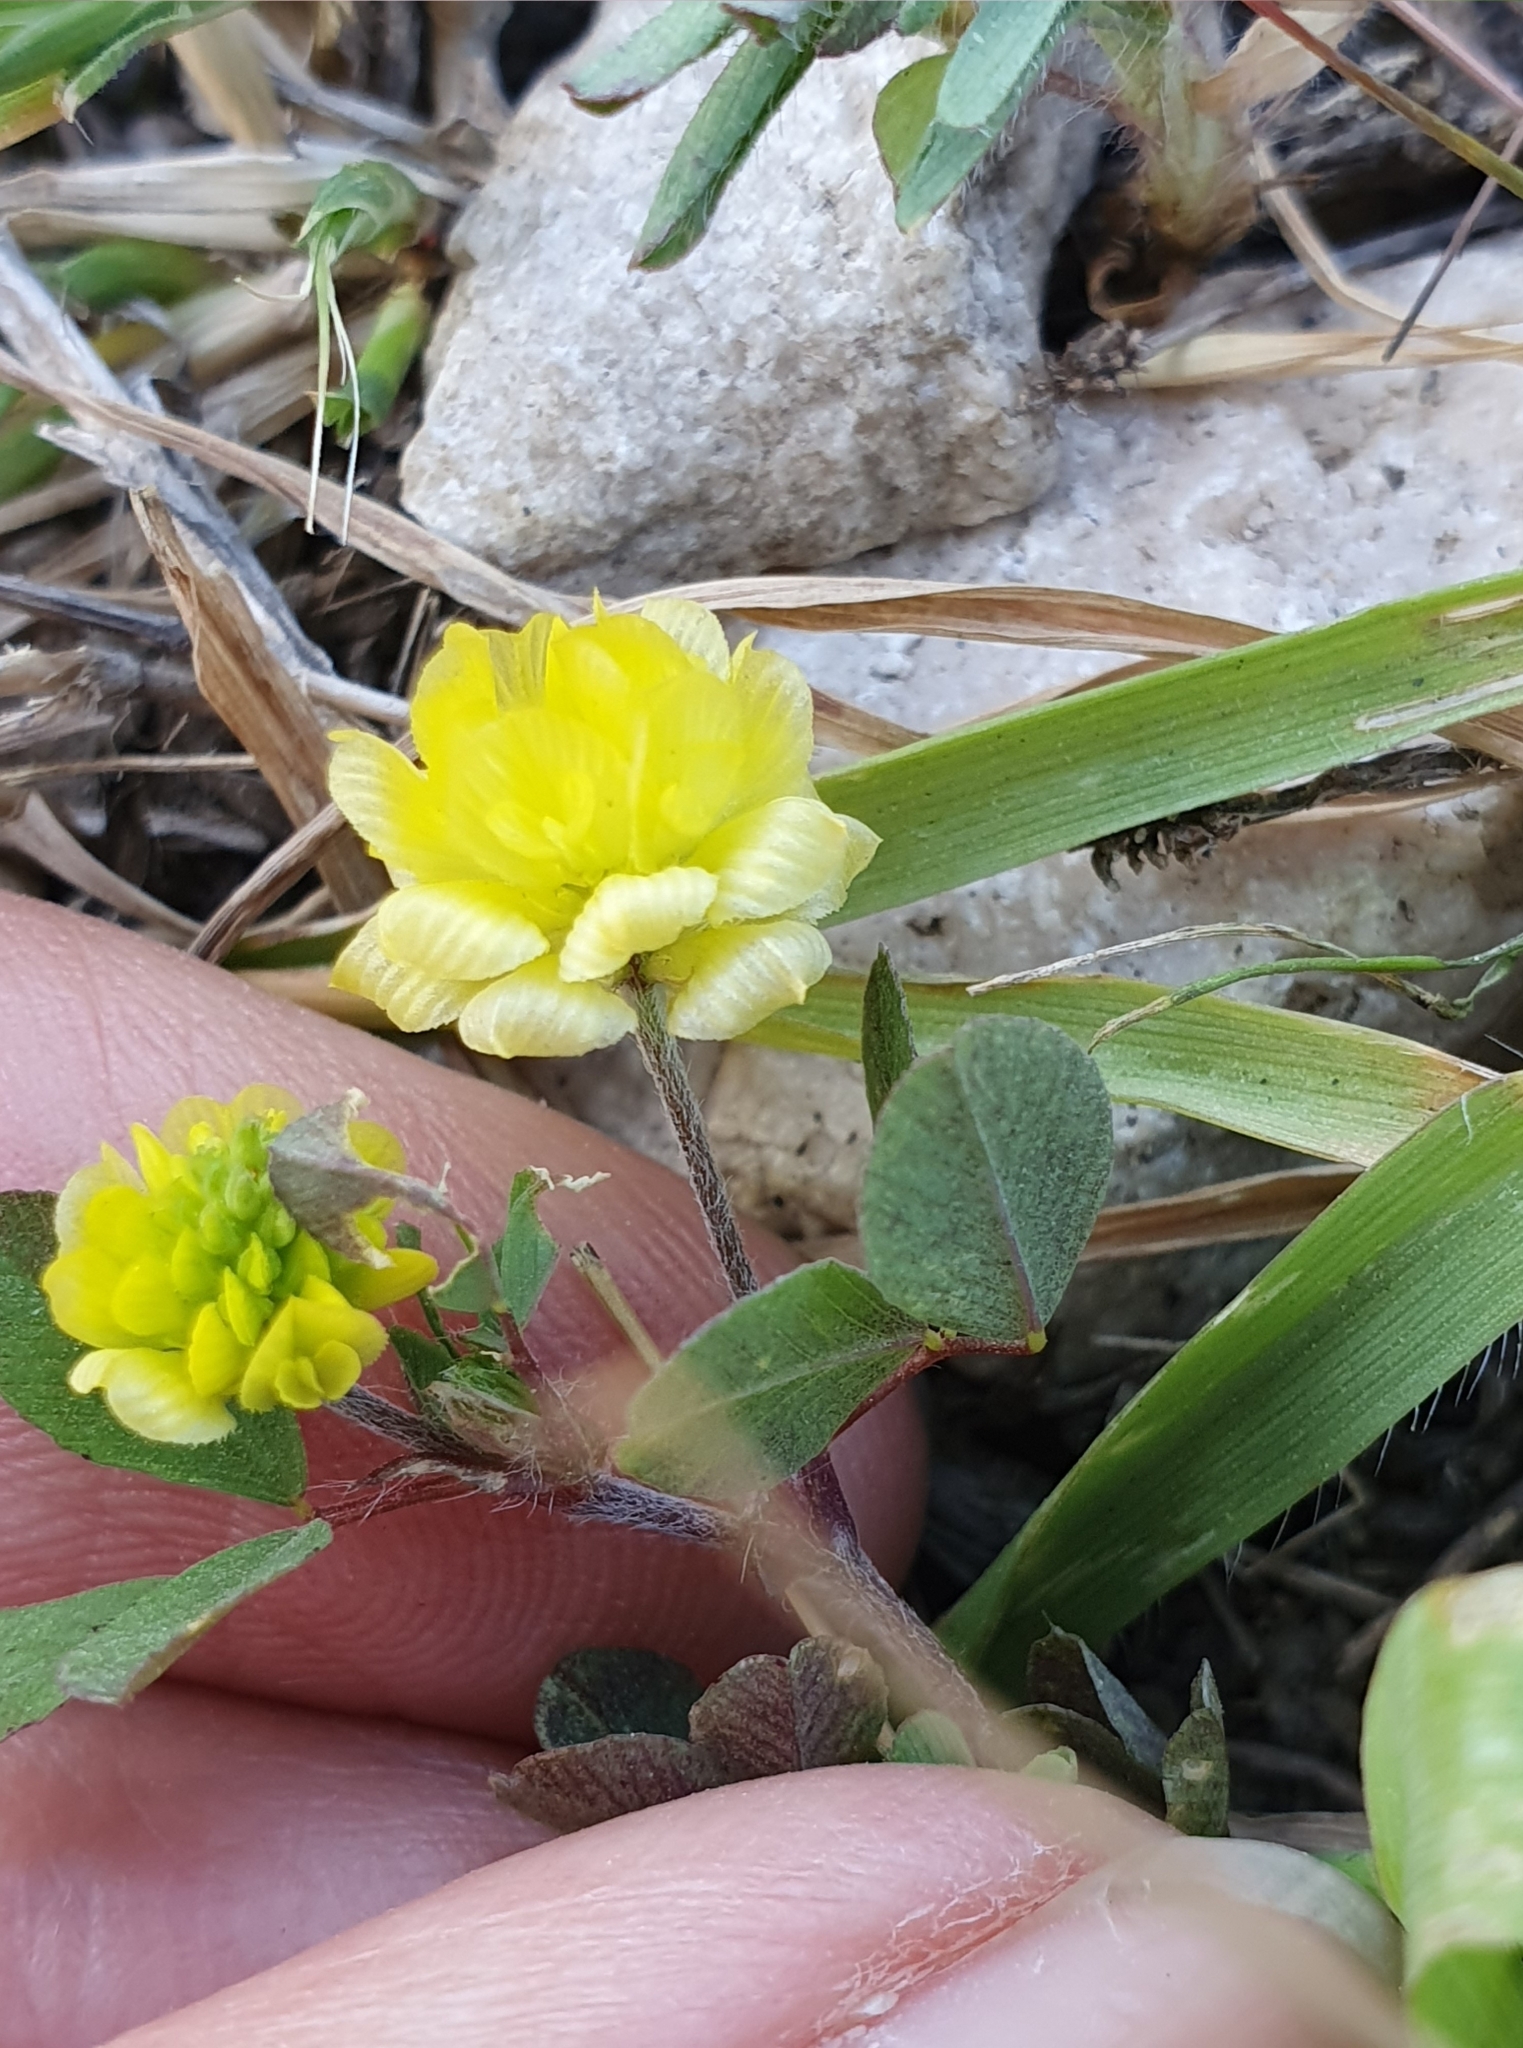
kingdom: Plantae
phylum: Tracheophyta
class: Magnoliopsida
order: Fabales
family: Fabaceae
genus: Trifolium
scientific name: Trifolium campestre
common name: Field clover
